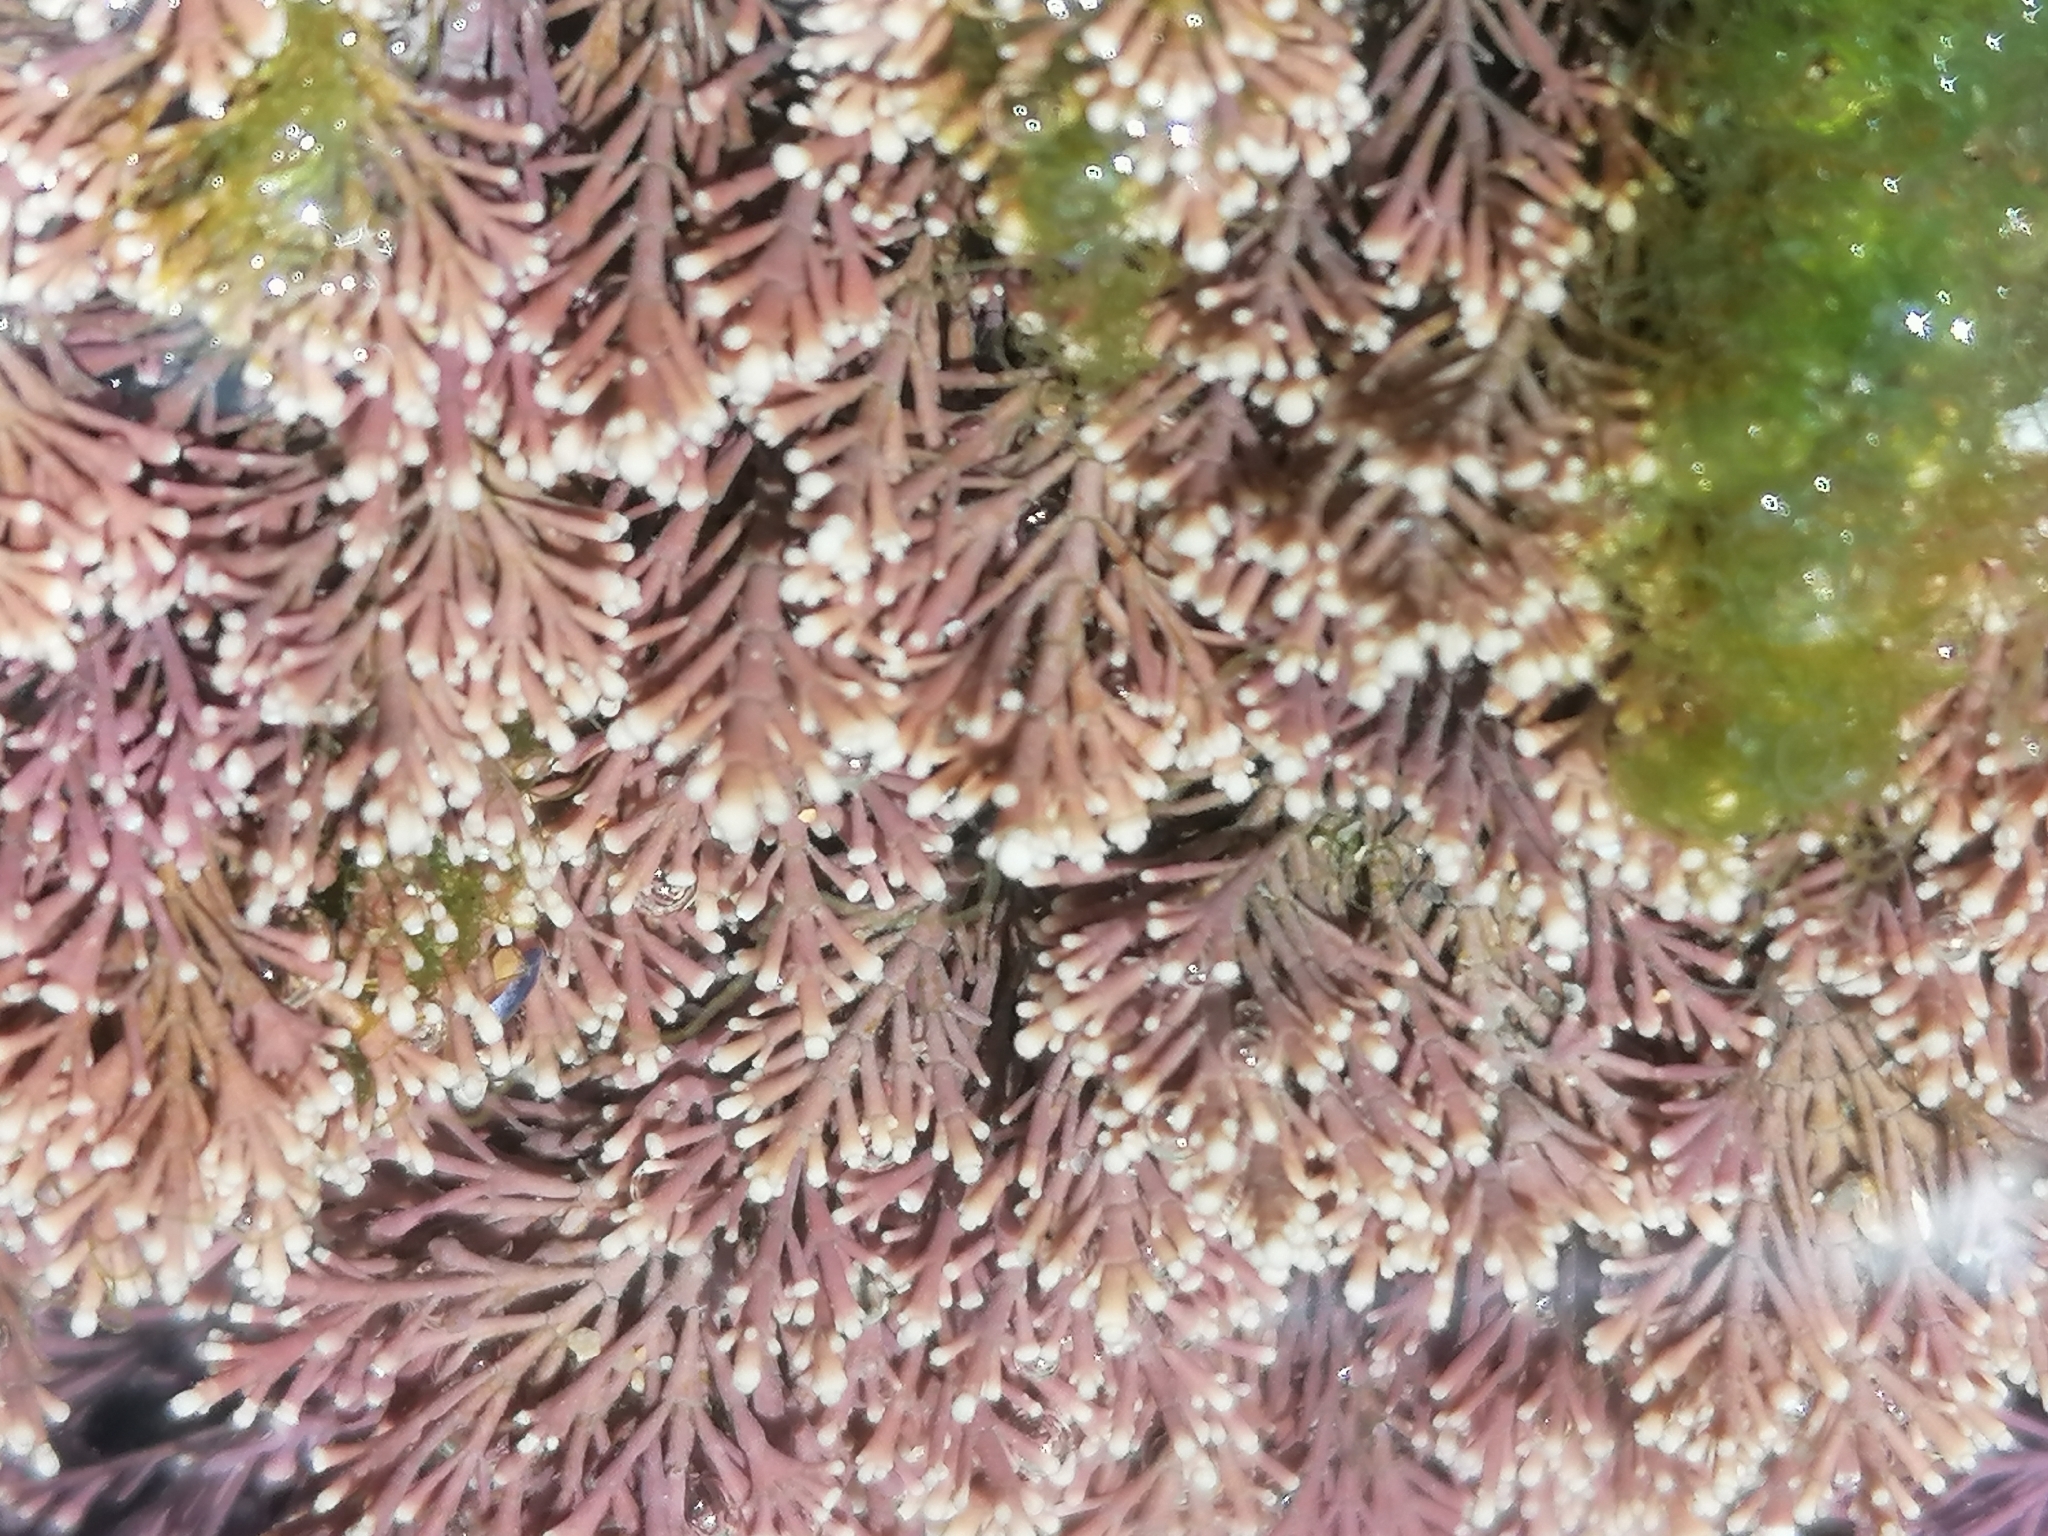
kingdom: Plantae
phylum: Rhodophyta
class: Florideophyceae
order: Corallinales
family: Corallinaceae
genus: Corallina
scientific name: Corallina officinalis
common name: Coral weed
